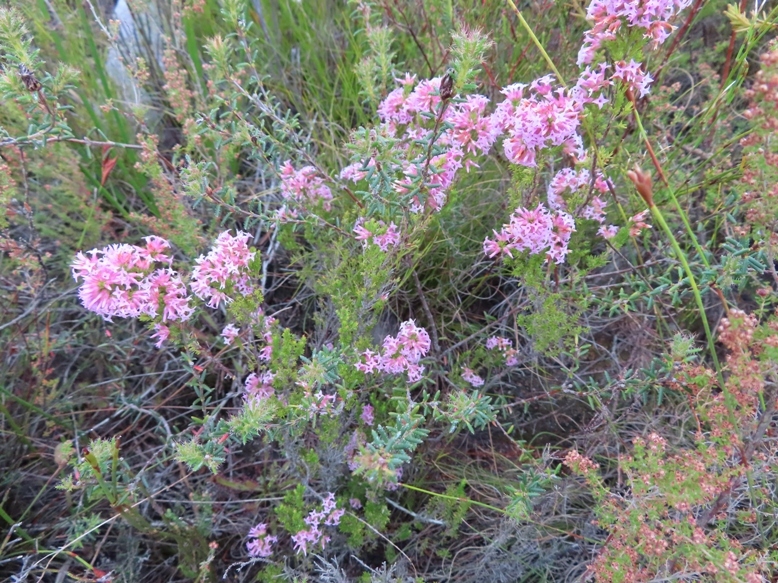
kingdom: Plantae
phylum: Tracheophyta
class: Magnoliopsida
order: Ericales
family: Ericaceae
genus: Erica
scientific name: Erica
